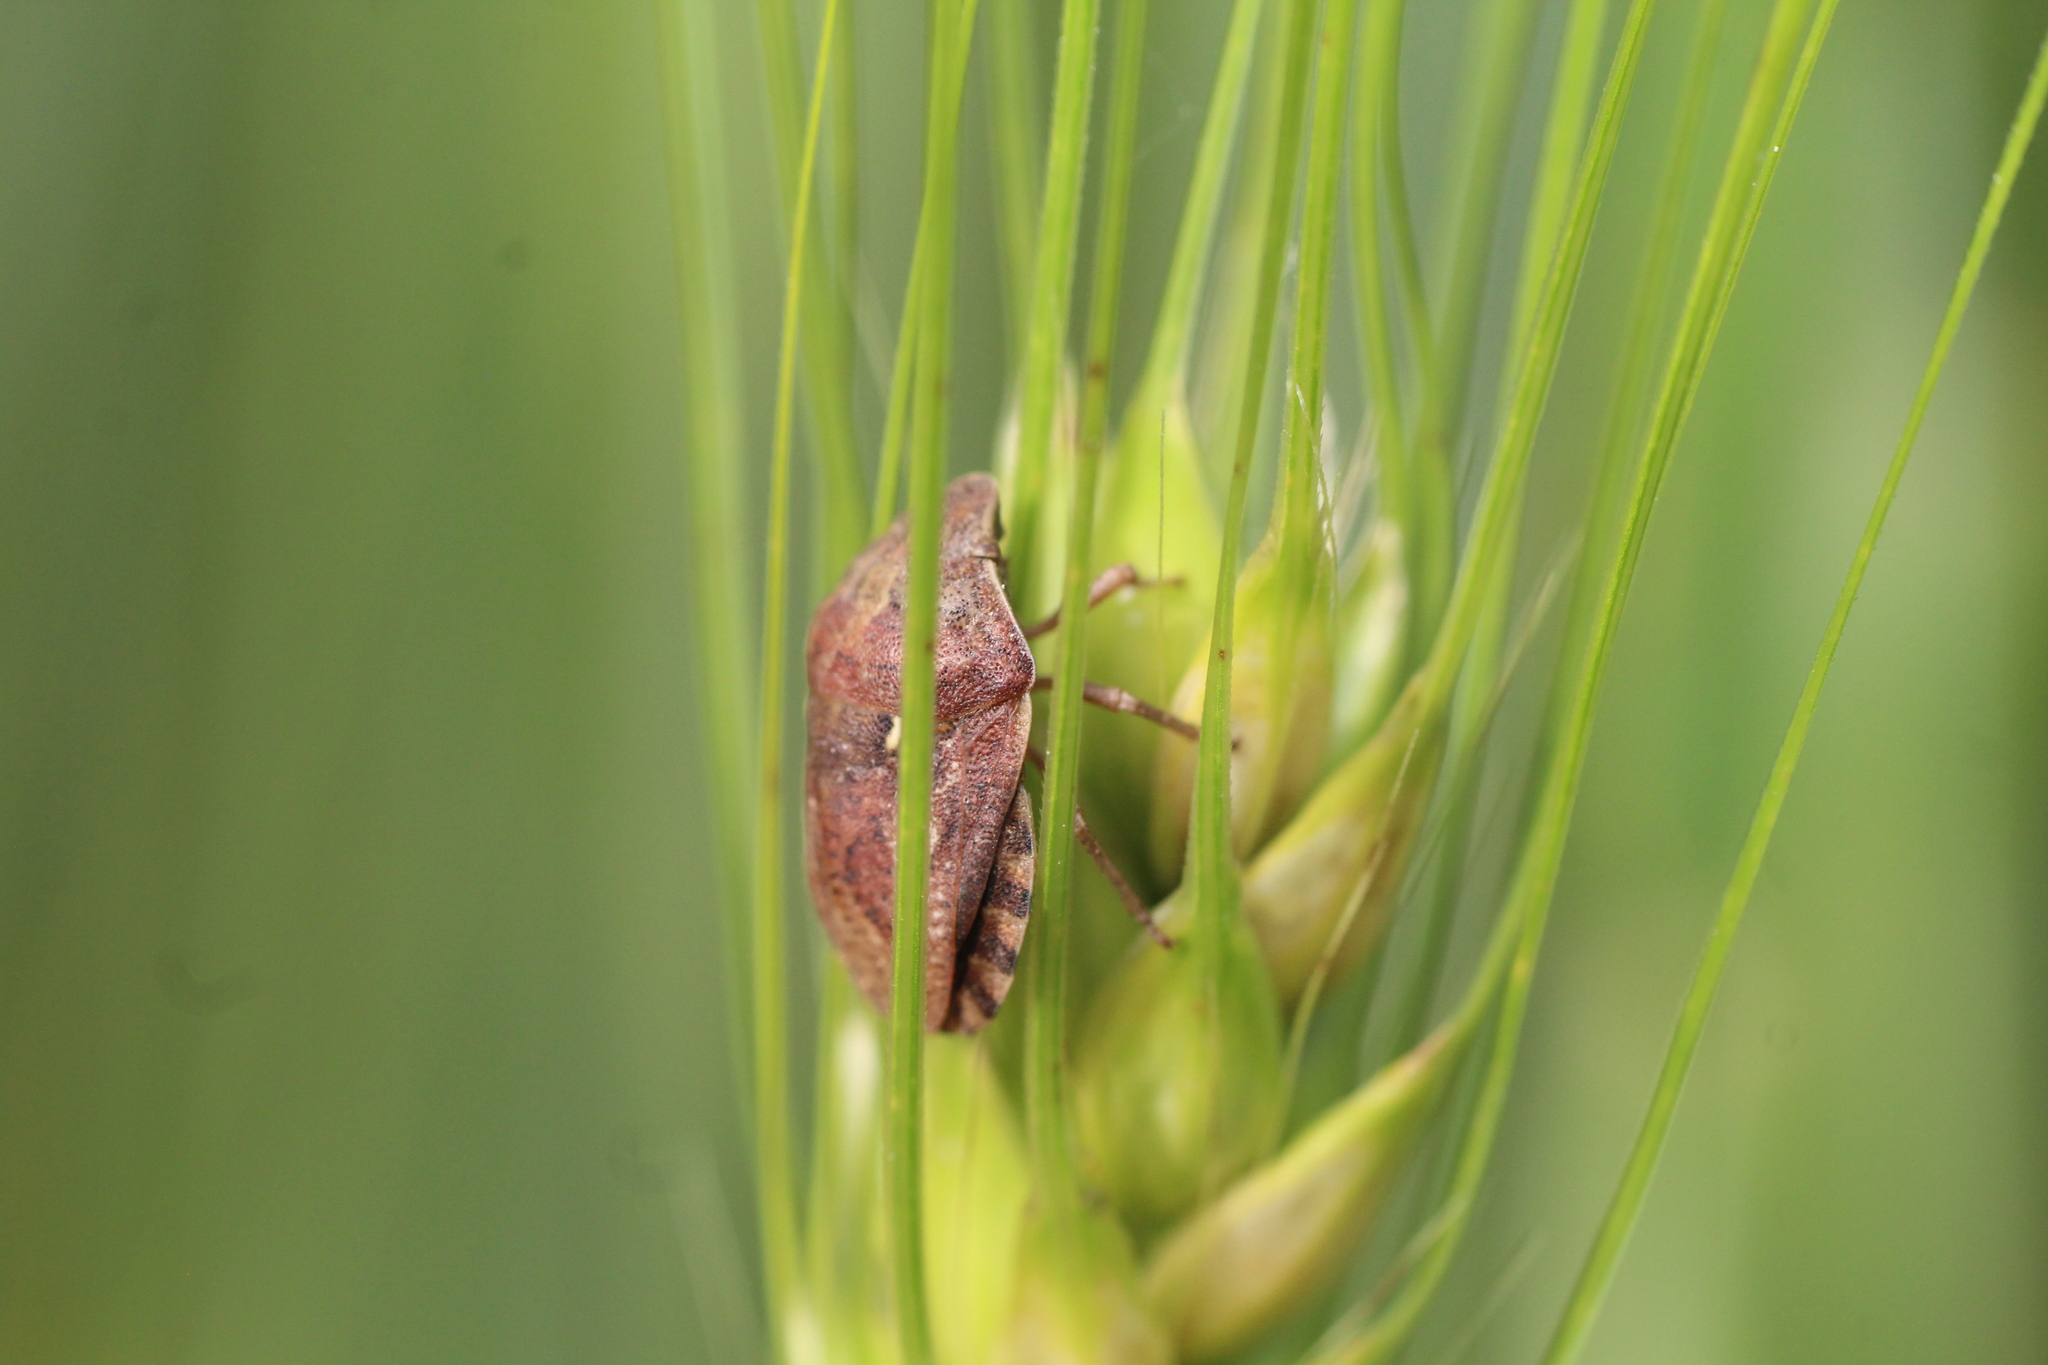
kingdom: Animalia
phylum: Arthropoda
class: Insecta
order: Hemiptera
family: Scutelleridae
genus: Eurygaster
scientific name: Eurygaster maura
